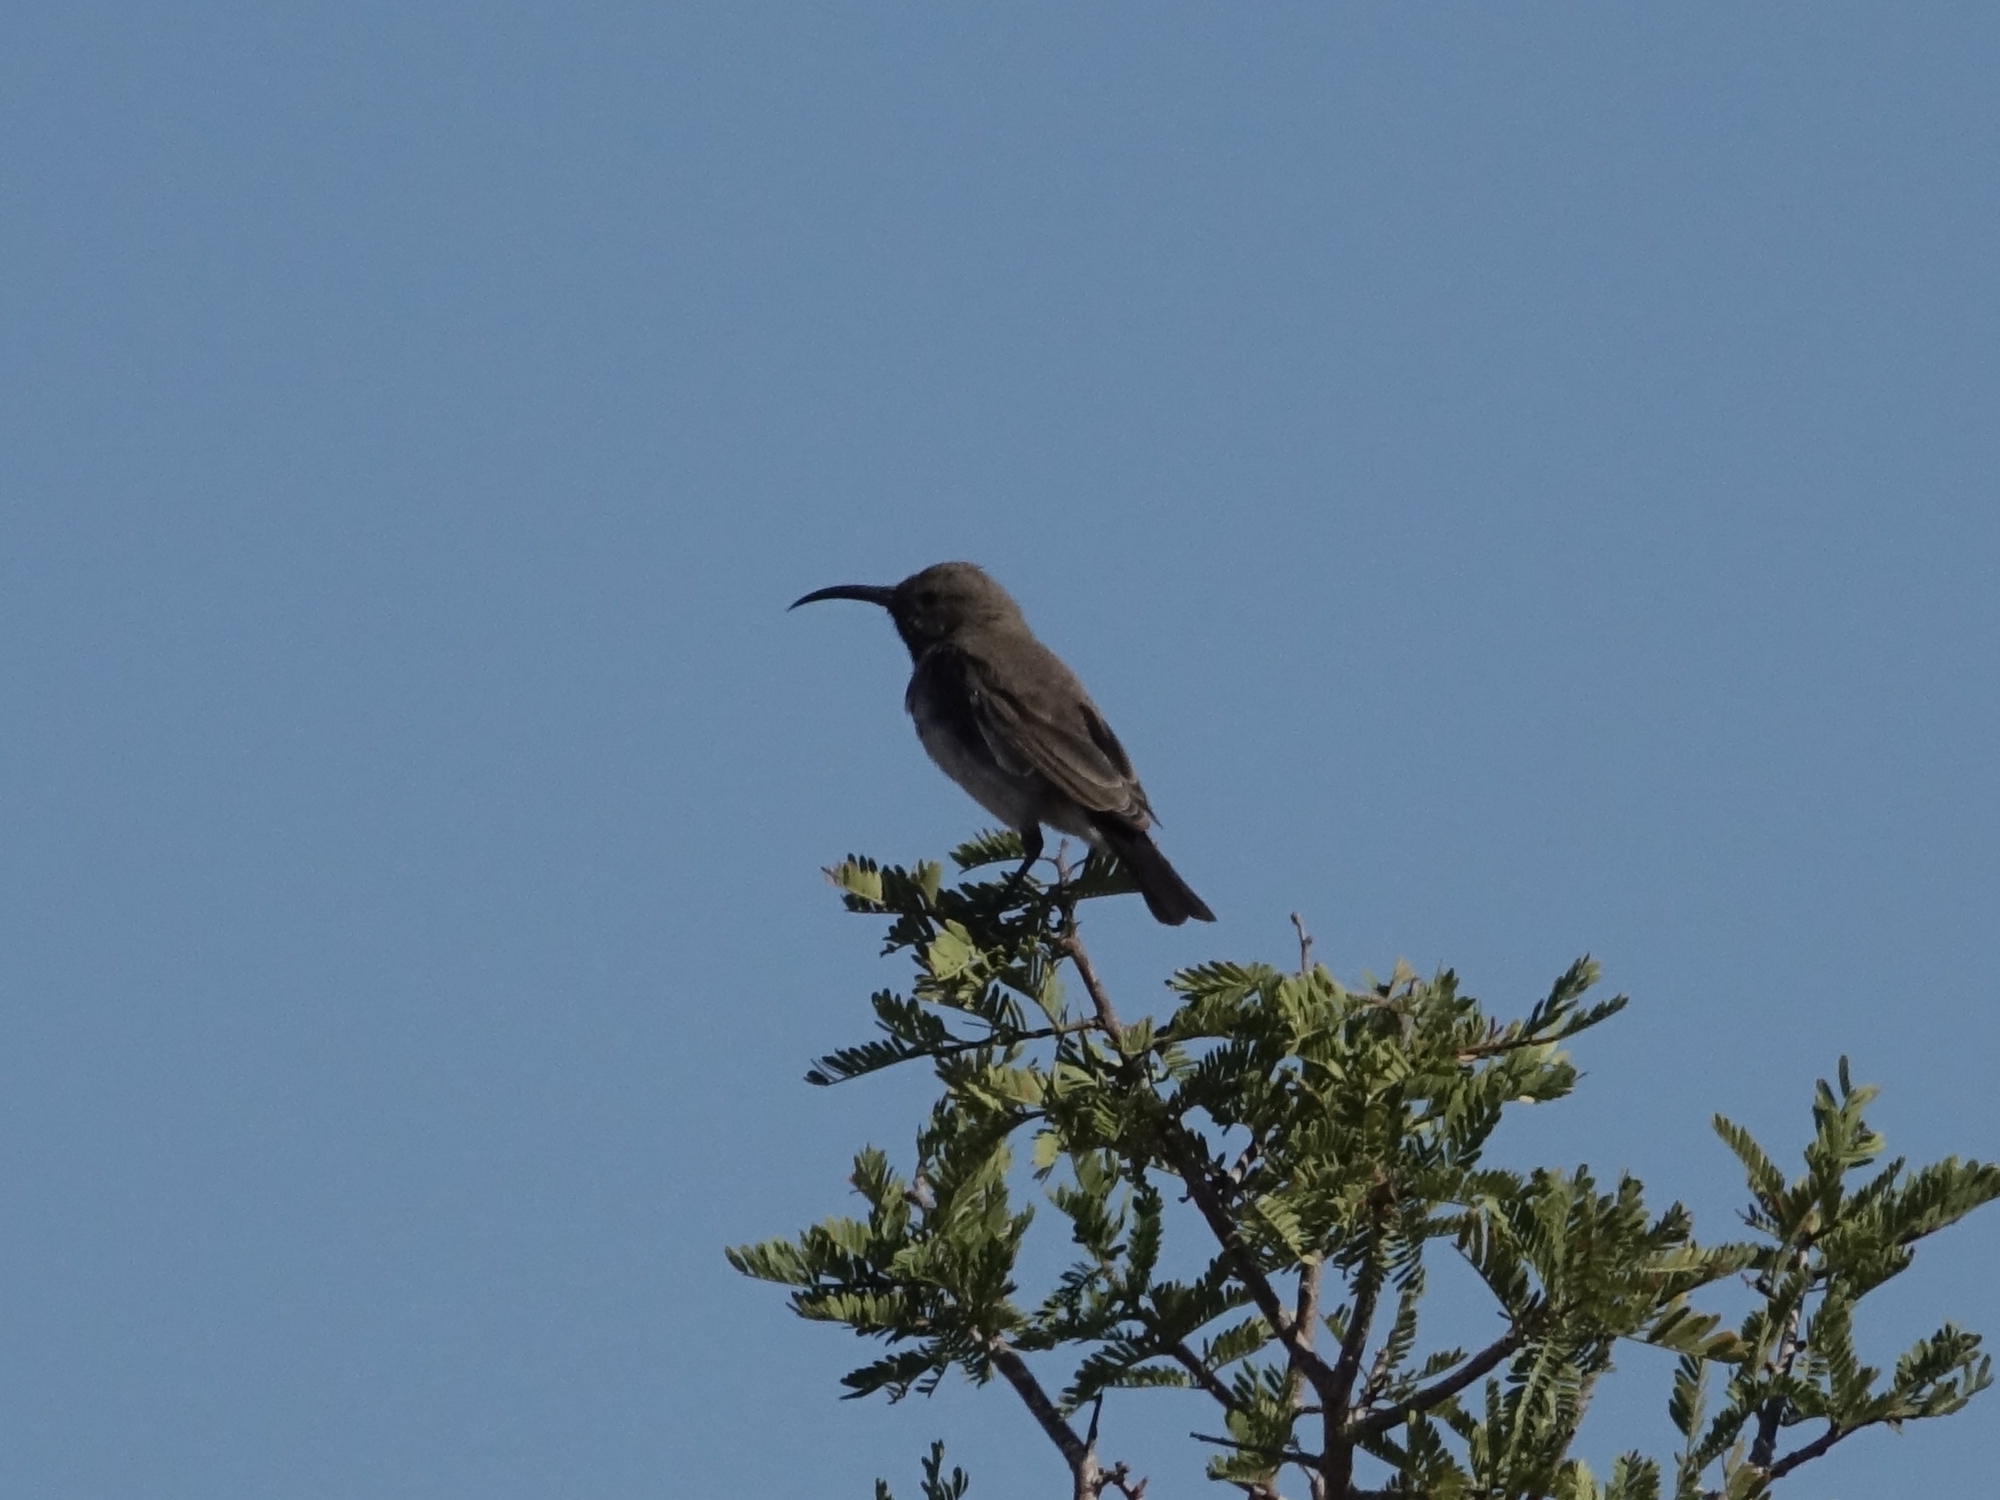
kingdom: Animalia
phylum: Chordata
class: Aves
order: Passeriformes
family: Nectariniidae
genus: Cinnyris
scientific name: Cinnyris fuscus
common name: Dusky sunbird
